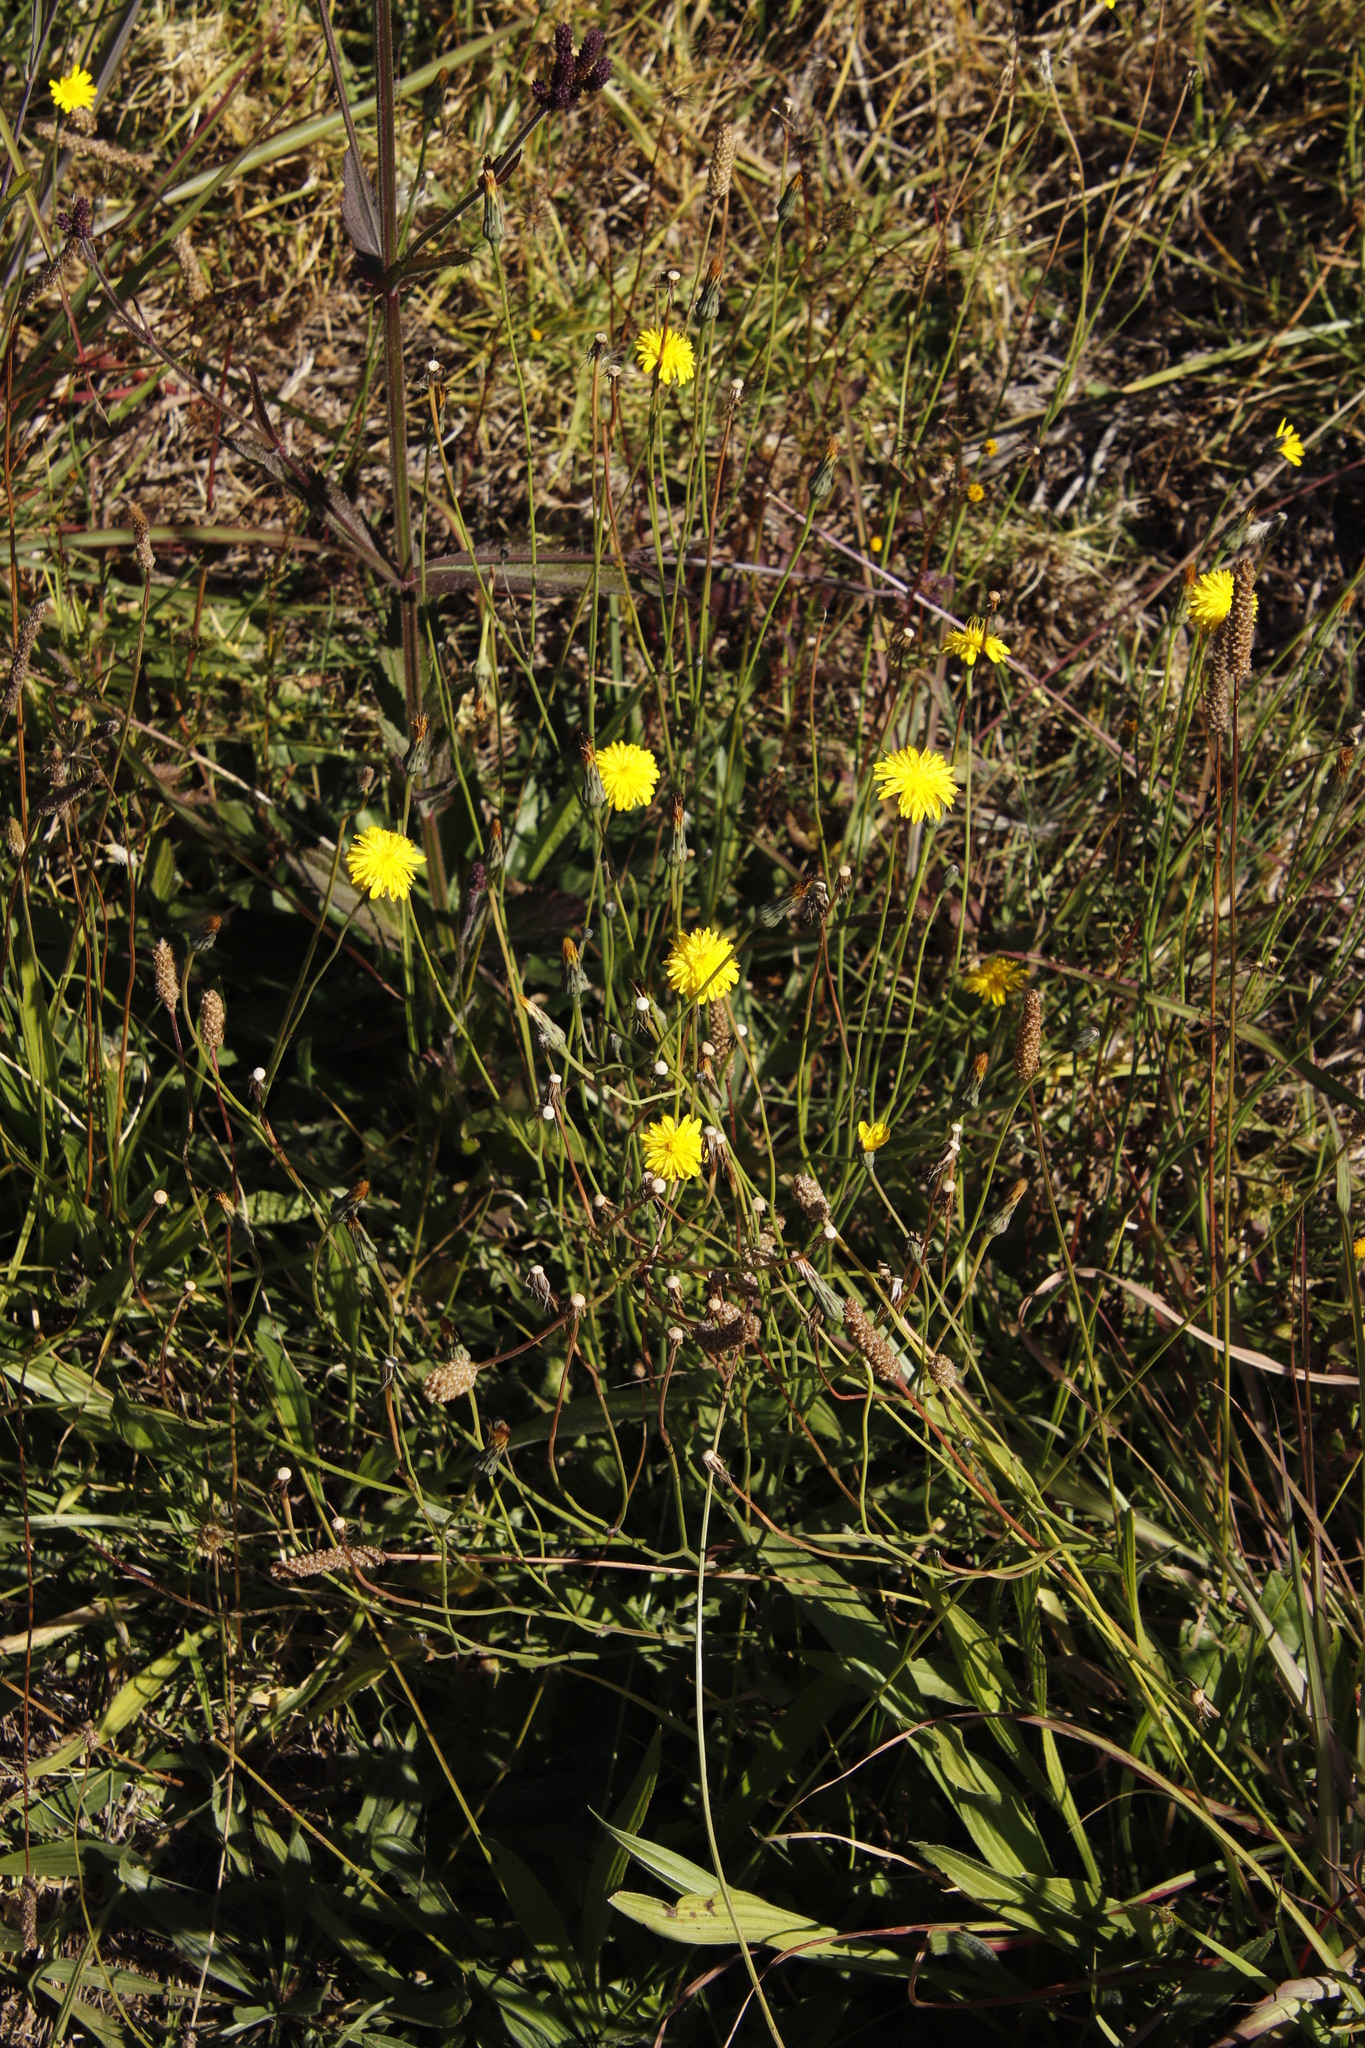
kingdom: Plantae
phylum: Tracheophyta
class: Magnoliopsida
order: Asterales
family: Asteraceae
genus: Hypochaeris
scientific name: Hypochaeris radicata
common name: Flatweed
